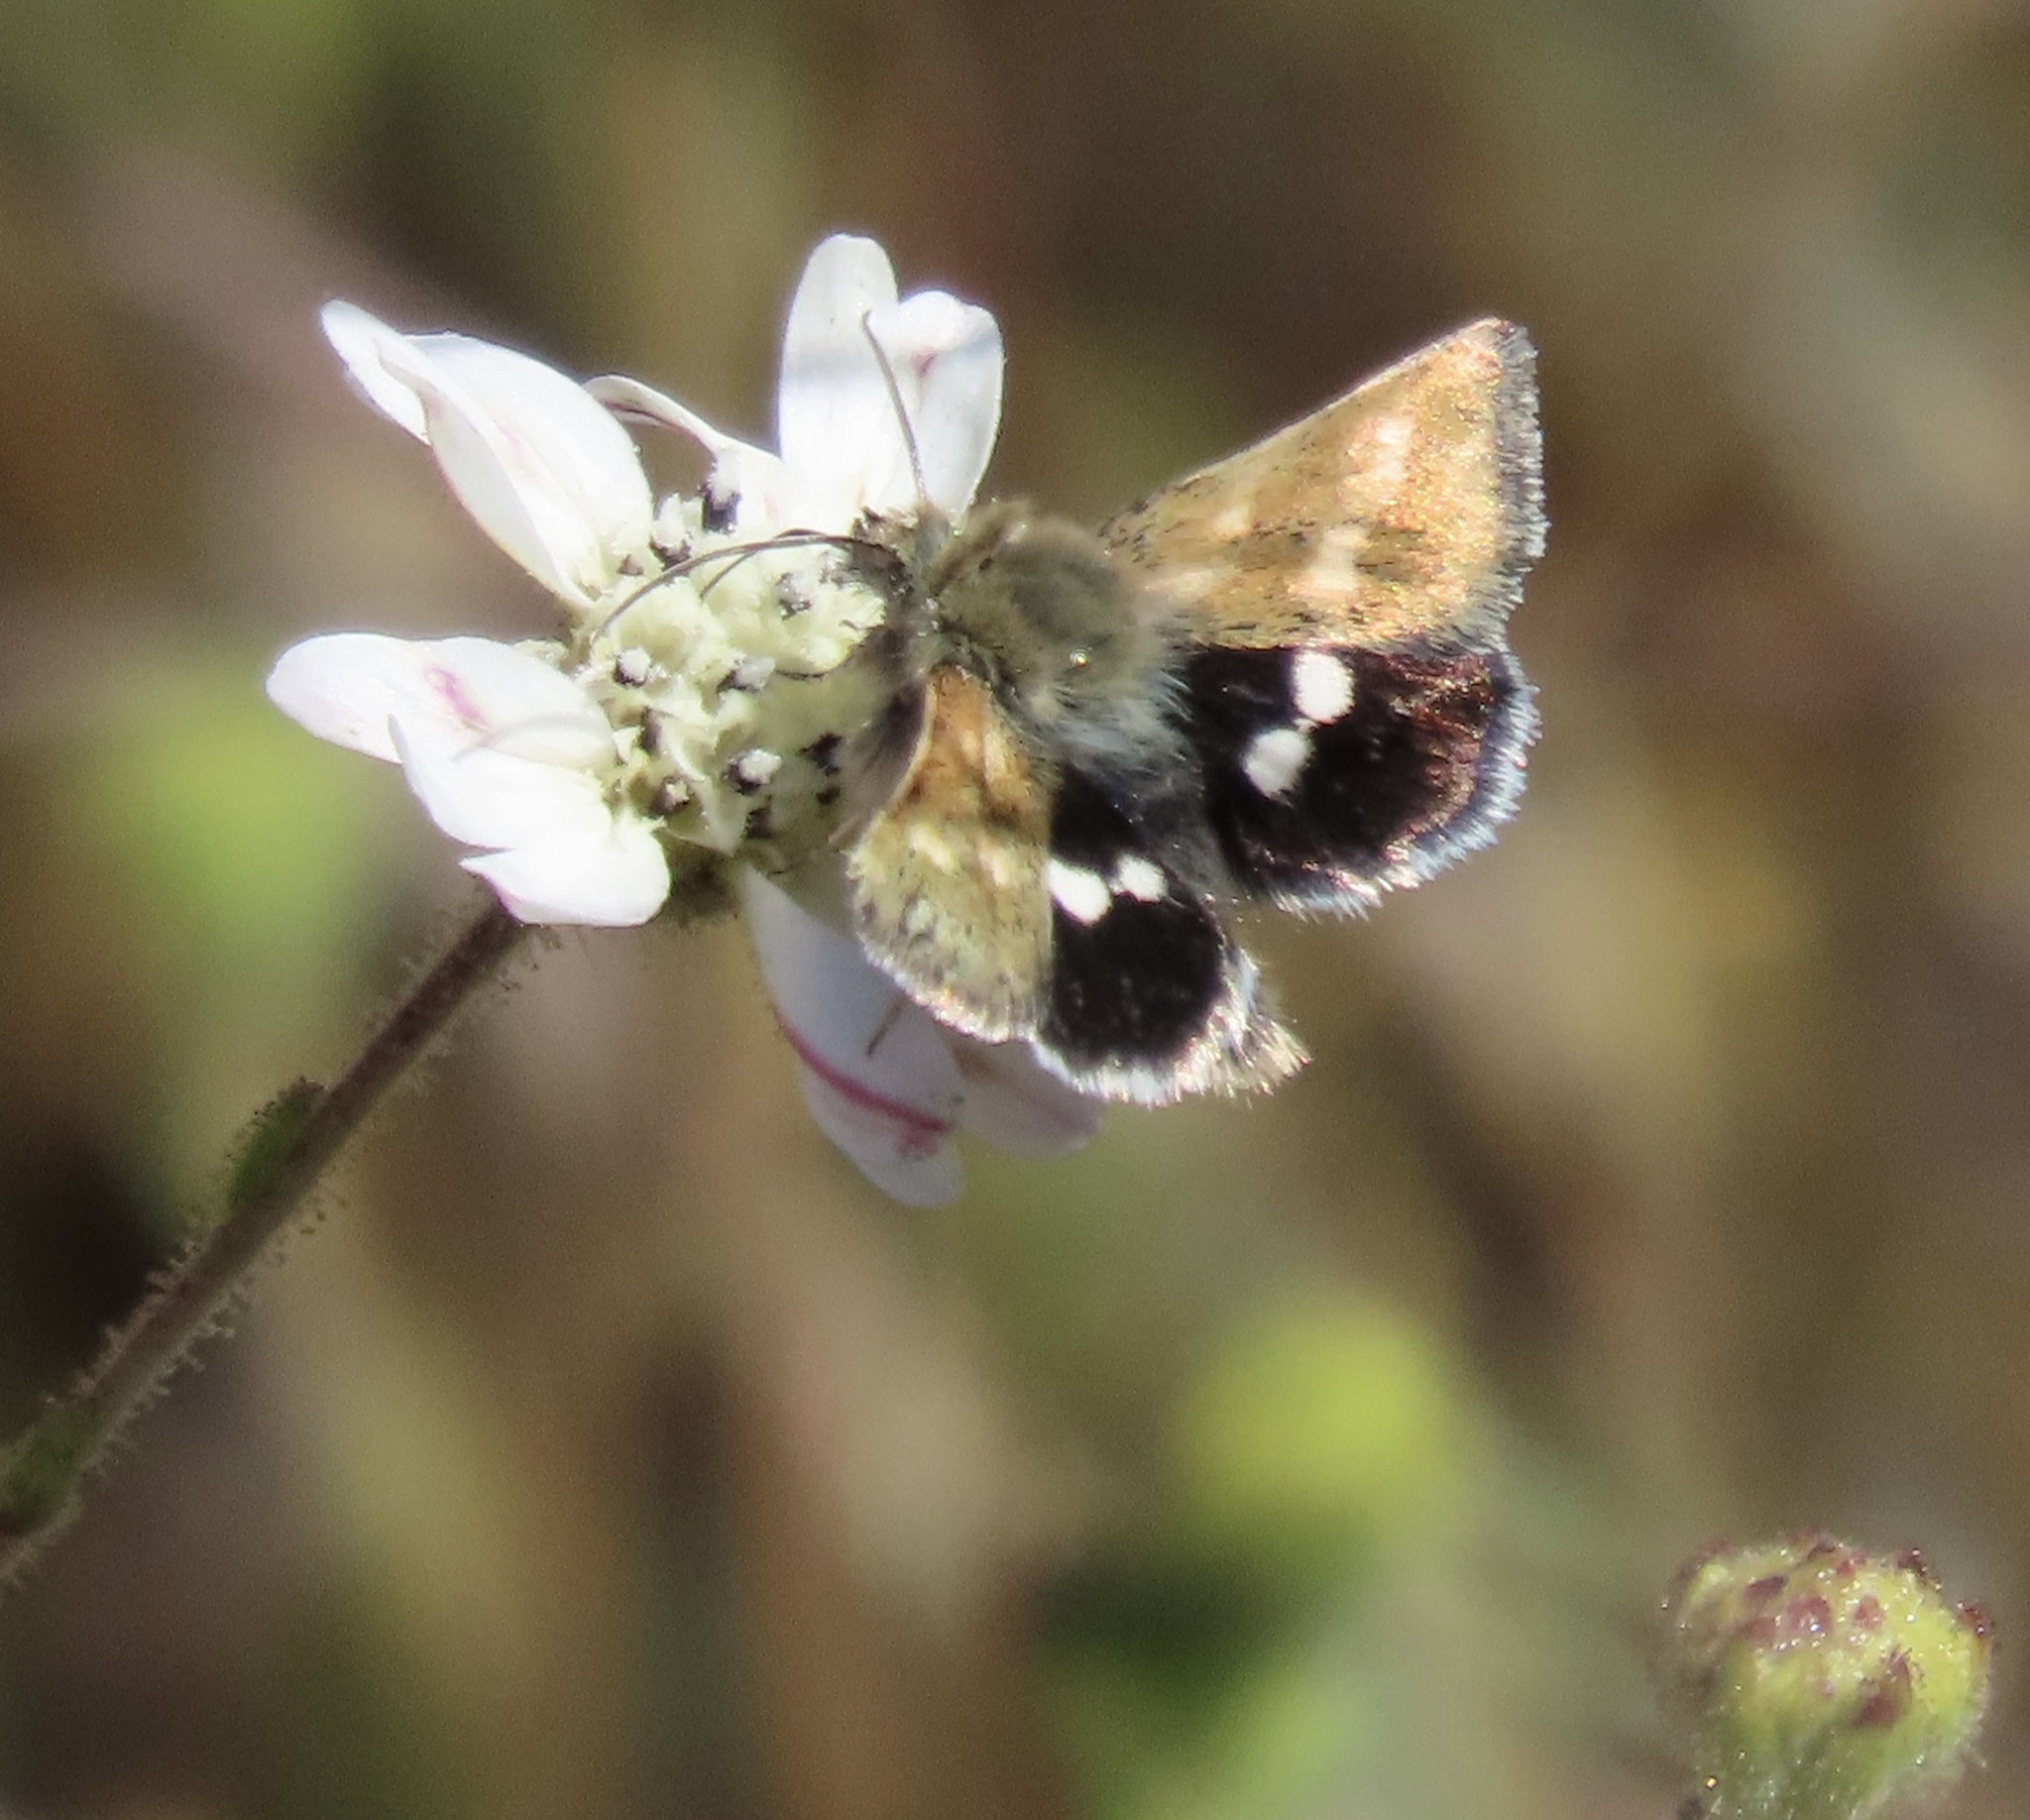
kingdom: Animalia
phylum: Arthropoda
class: Insecta
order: Lepidoptera
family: Noctuidae
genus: Heliothodes
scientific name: Heliothodes diminutiva
